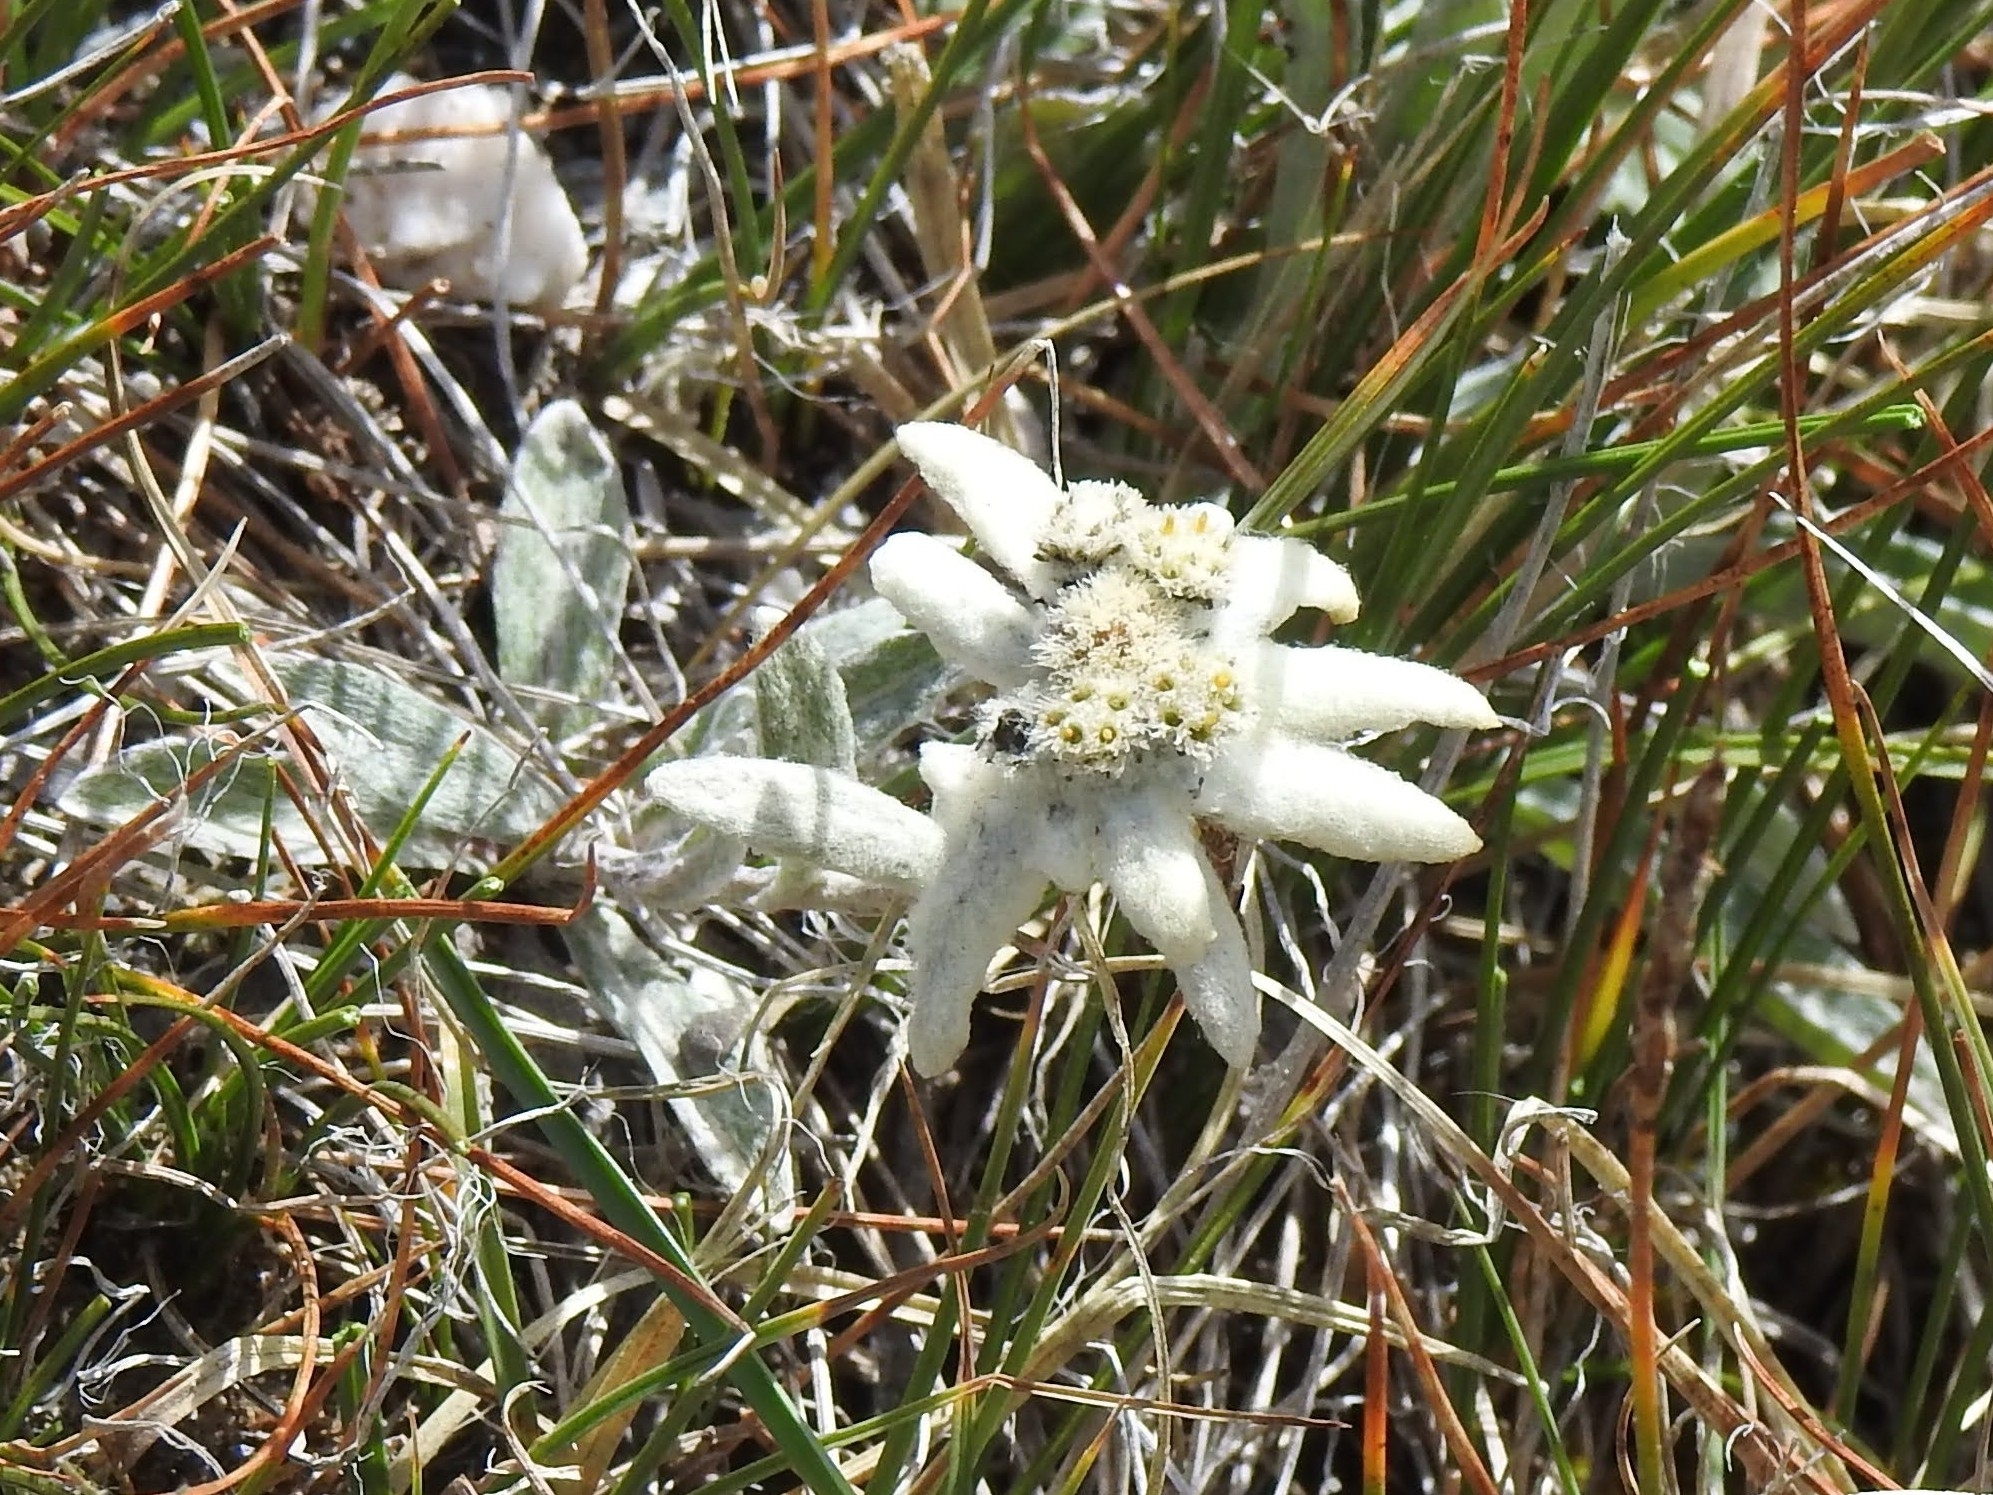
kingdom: Plantae
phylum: Tracheophyta
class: Magnoliopsida
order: Asterales
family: Asteraceae
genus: Leontopodium
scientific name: Leontopodium nivale
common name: Edelweiss
